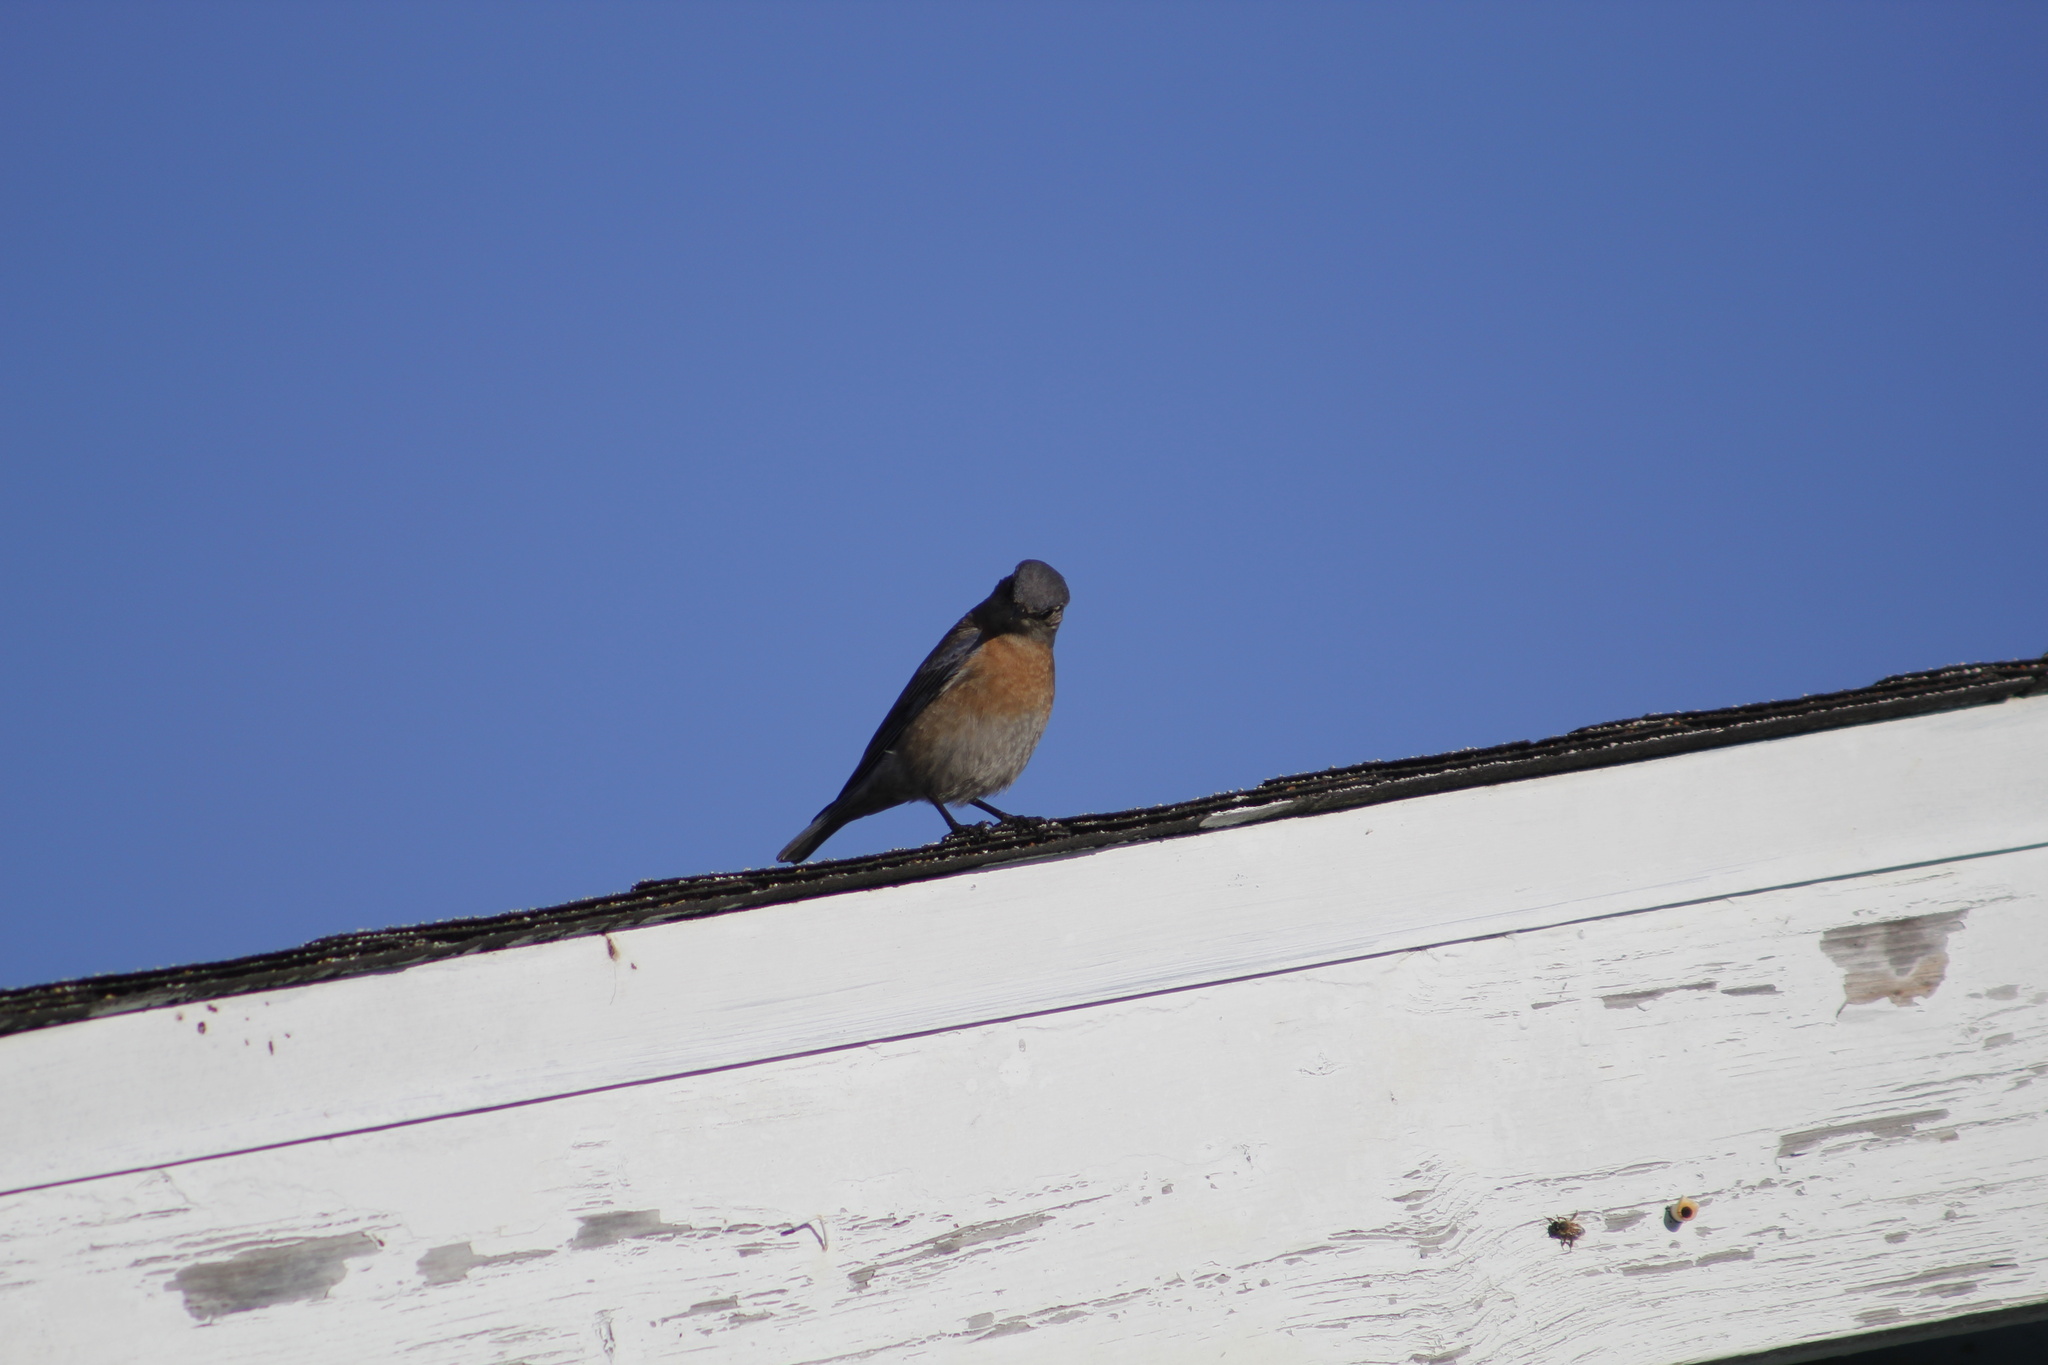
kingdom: Animalia
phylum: Chordata
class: Aves
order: Passeriformes
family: Turdidae
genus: Sialia
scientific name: Sialia mexicana
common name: Western bluebird
